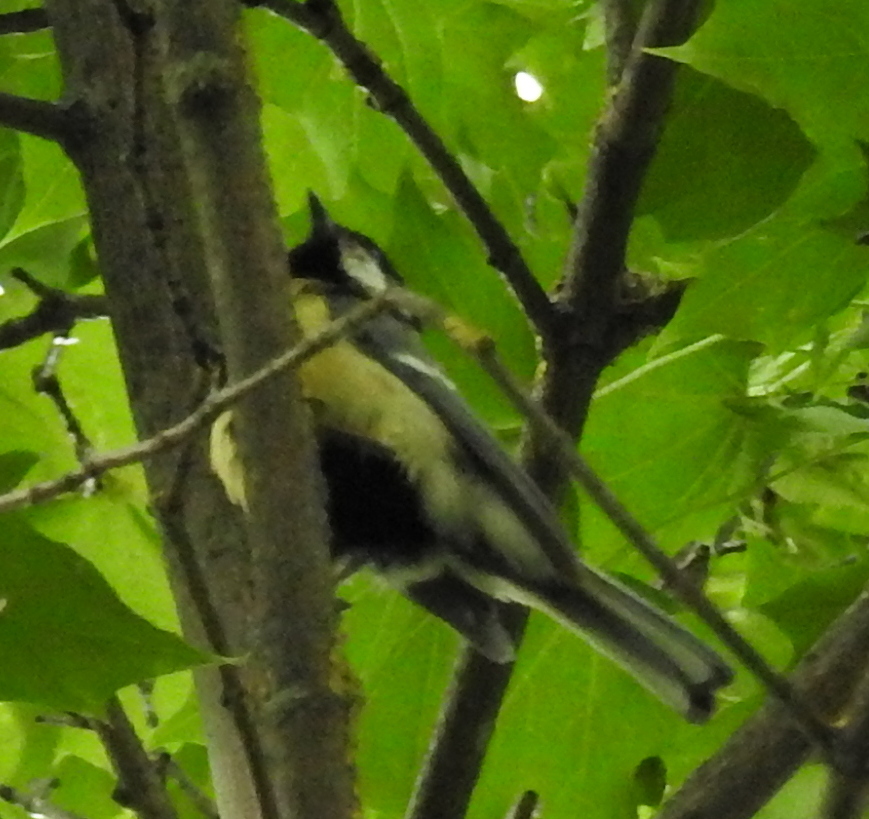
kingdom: Animalia
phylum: Chordata
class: Aves
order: Passeriformes
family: Paridae
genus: Parus
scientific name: Parus major
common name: Great tit
